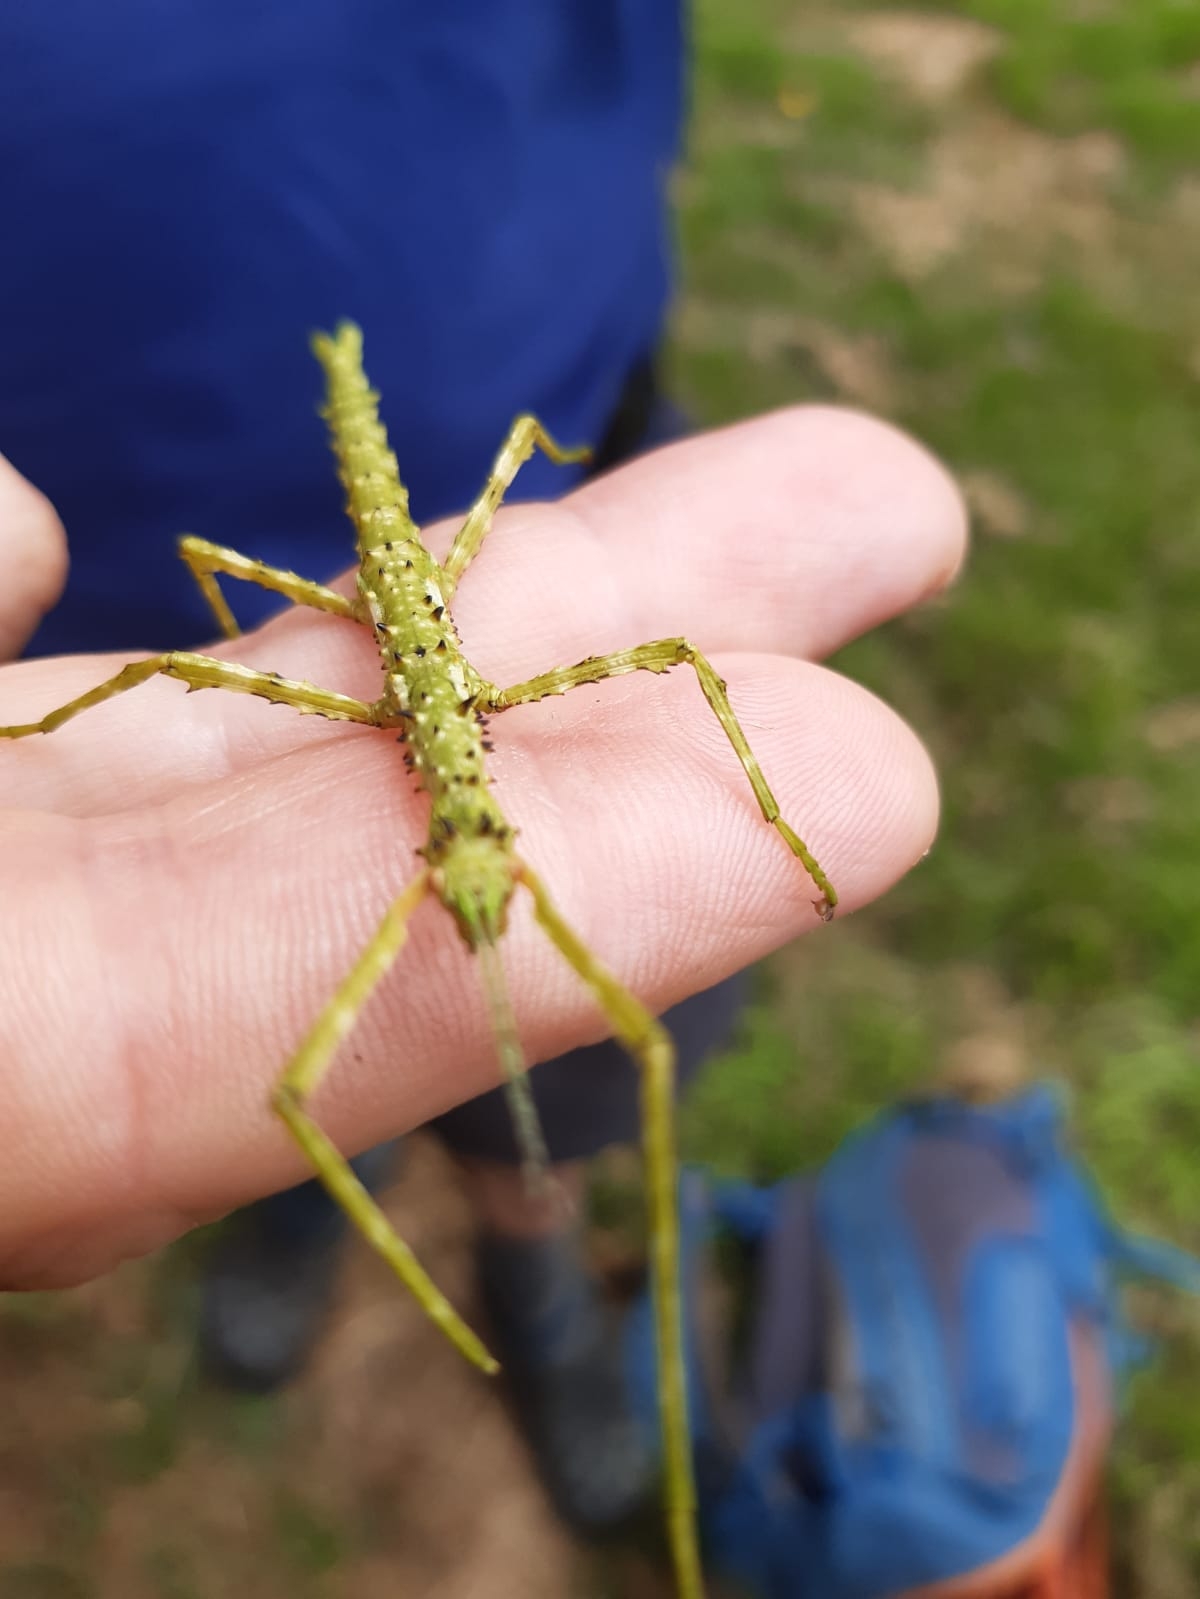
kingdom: Animalia
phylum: Arthropoda
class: Insecta
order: Phasmida
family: Phasmatidae
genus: Acanthoxyla
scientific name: Acanthoxyla prasina
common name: Black-spined stick insect
